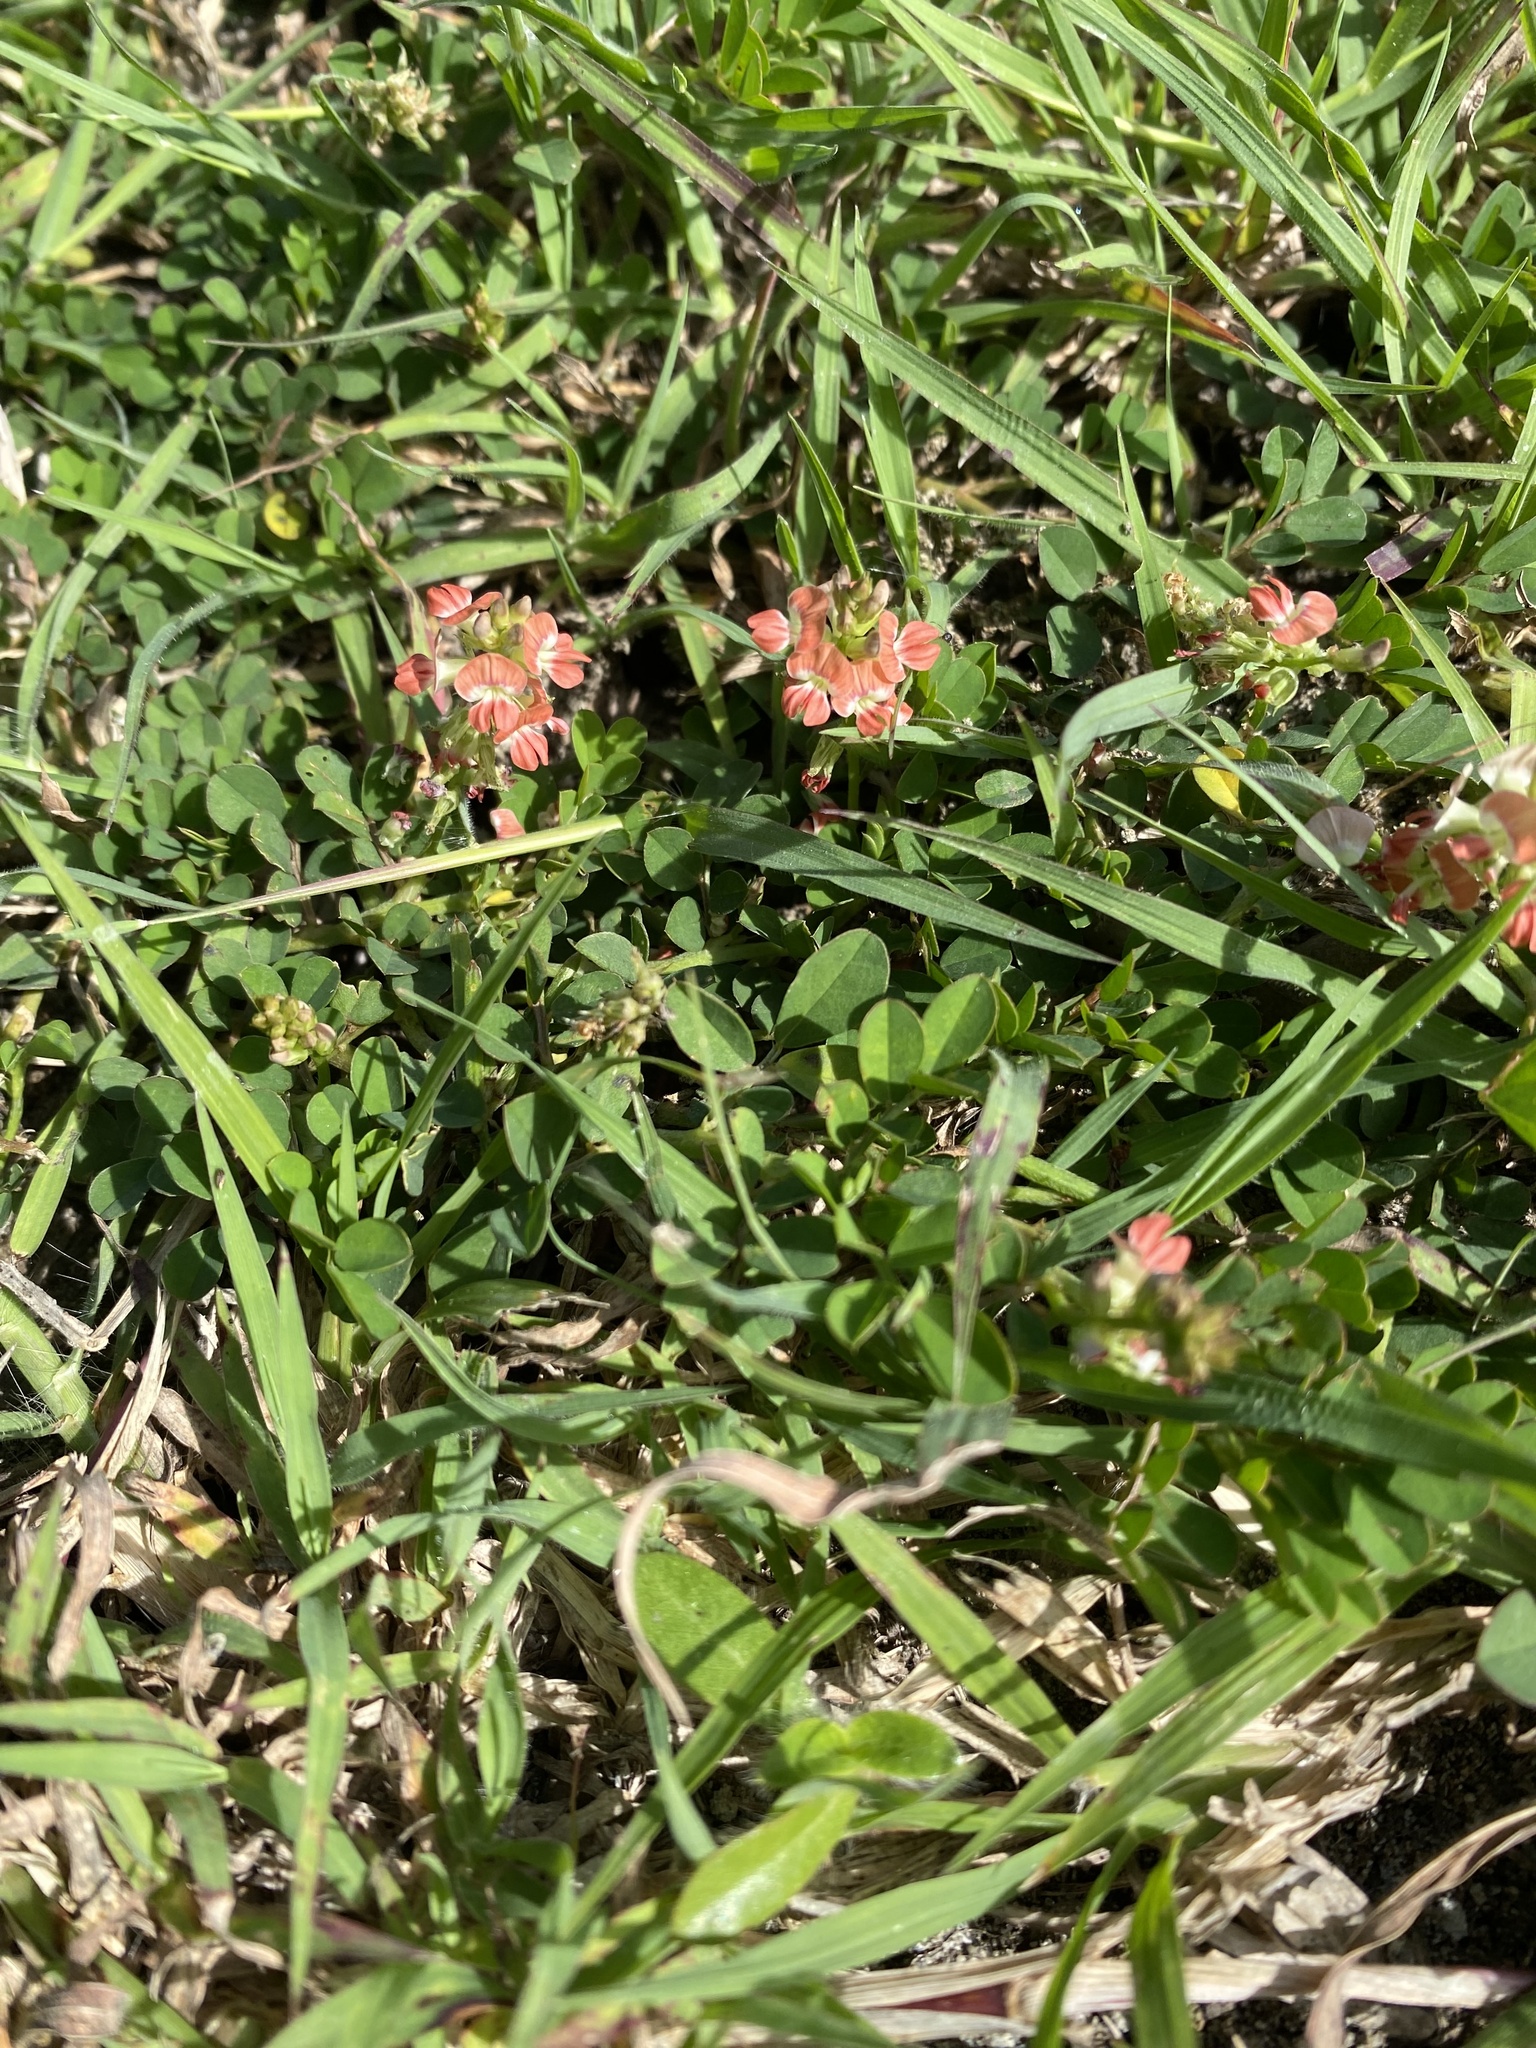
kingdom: Plantae
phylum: Tracheophyta
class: Magnoliopsida
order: Fabales
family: Fabaceae
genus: Indigofera
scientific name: Indigofera spicata
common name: Creeping indigo
